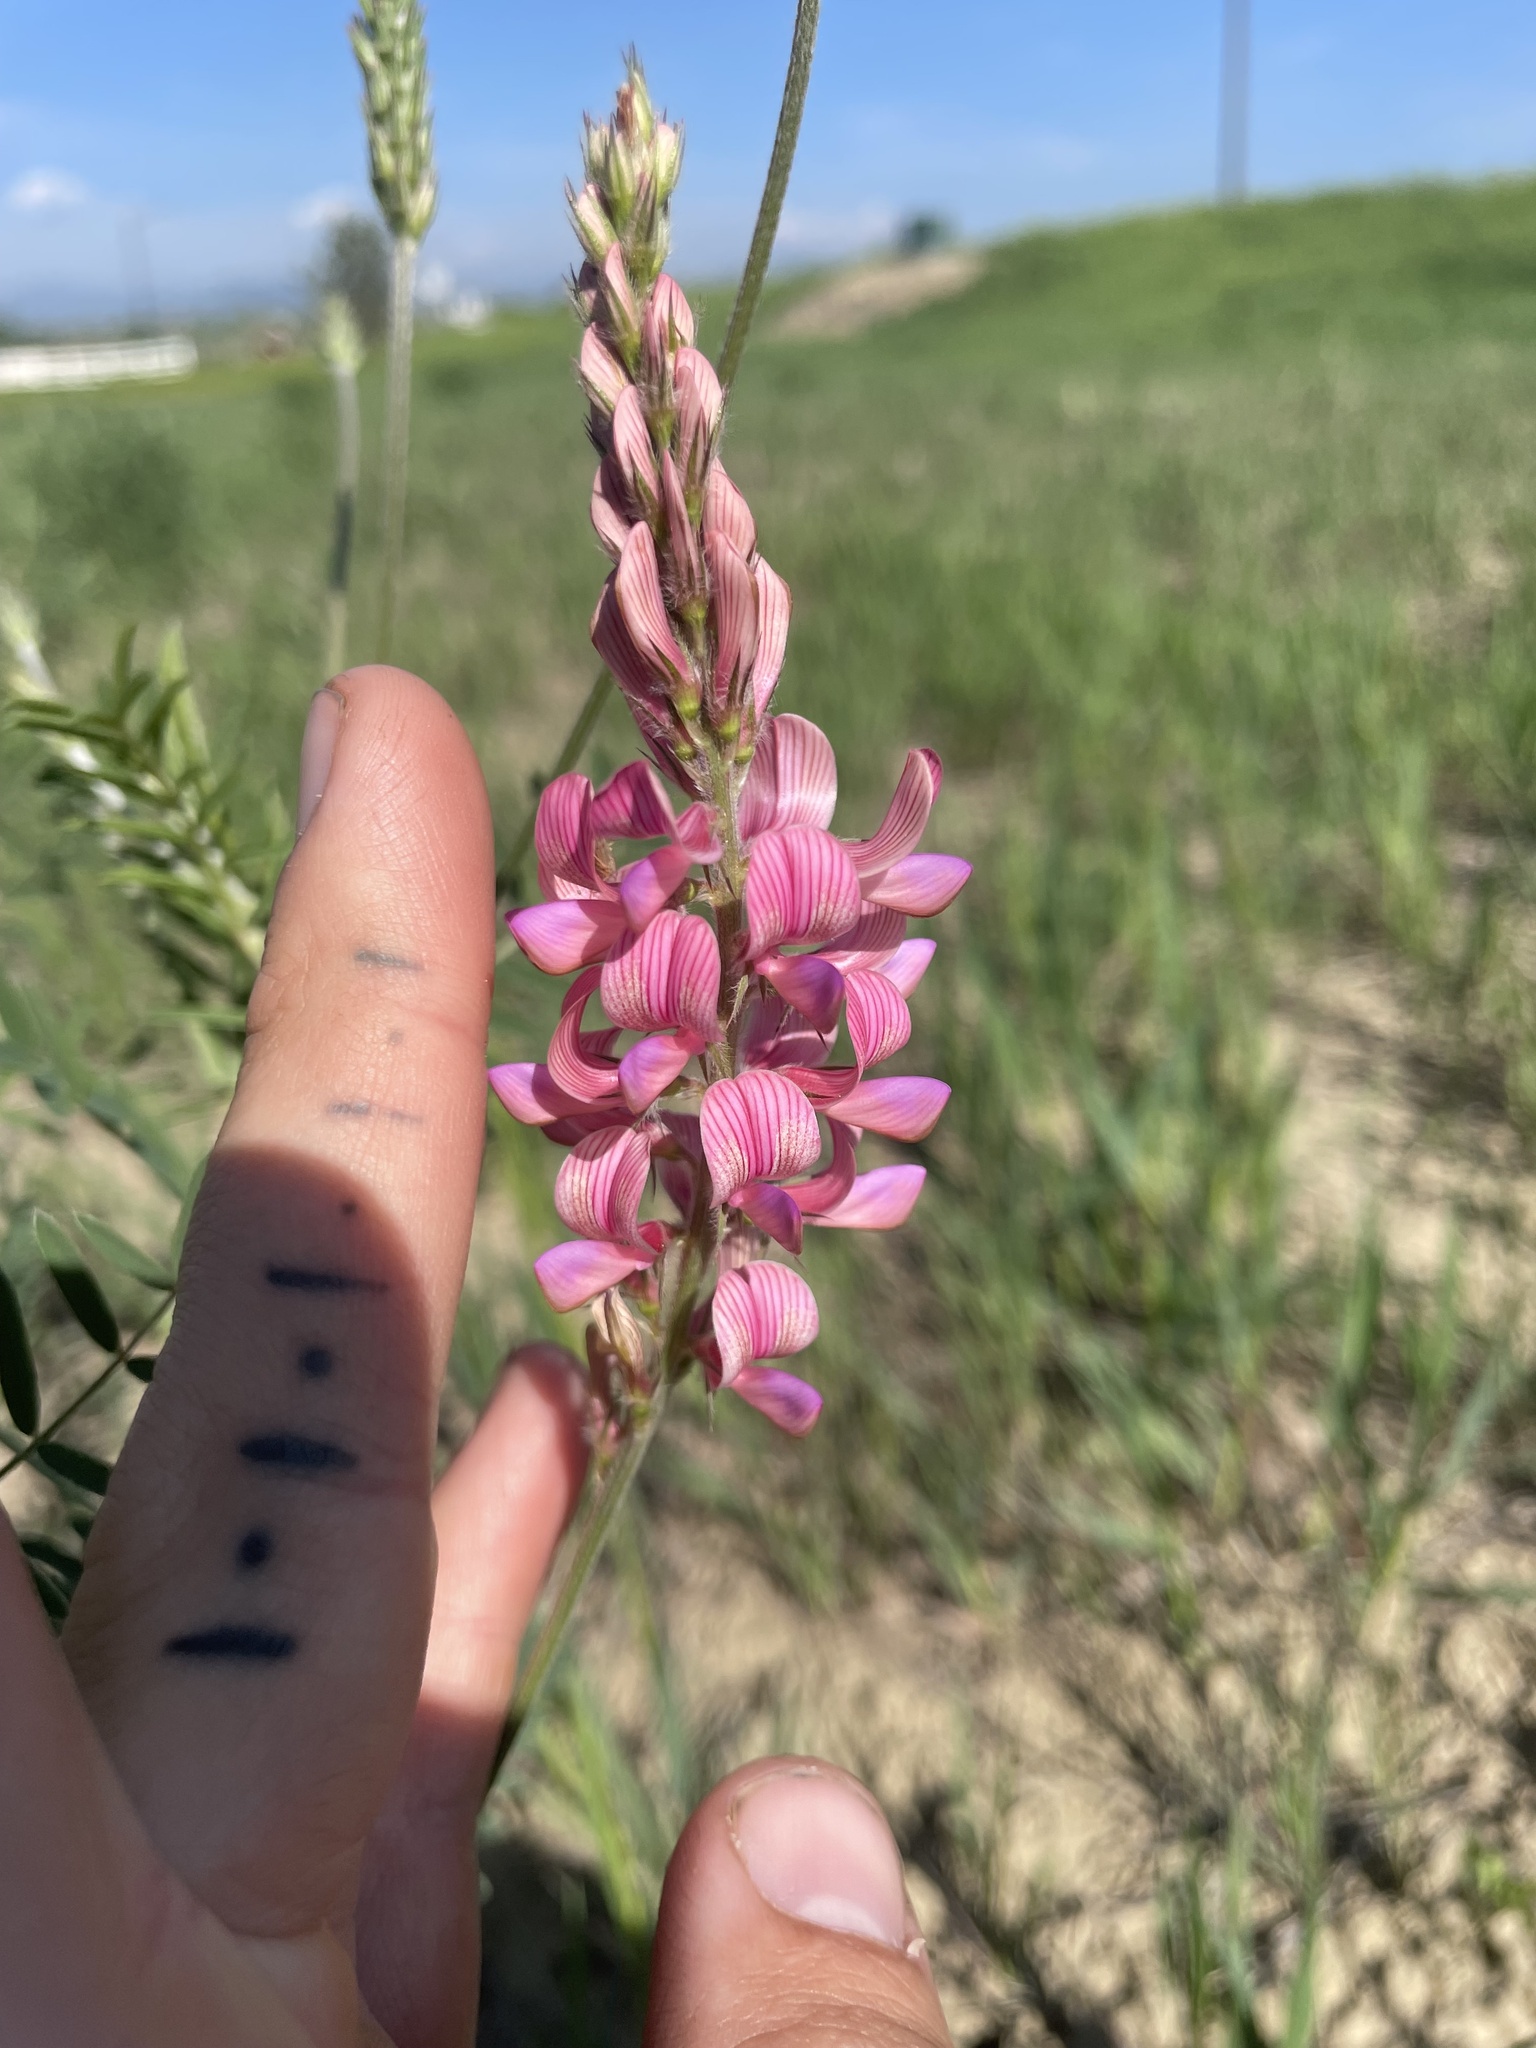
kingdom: Plantae
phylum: Tracheophyta
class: Magnoliopsida
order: Fabales
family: Fabaceae
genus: Onobrychis
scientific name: Onobrychis viciifolia
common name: Sainfoin
